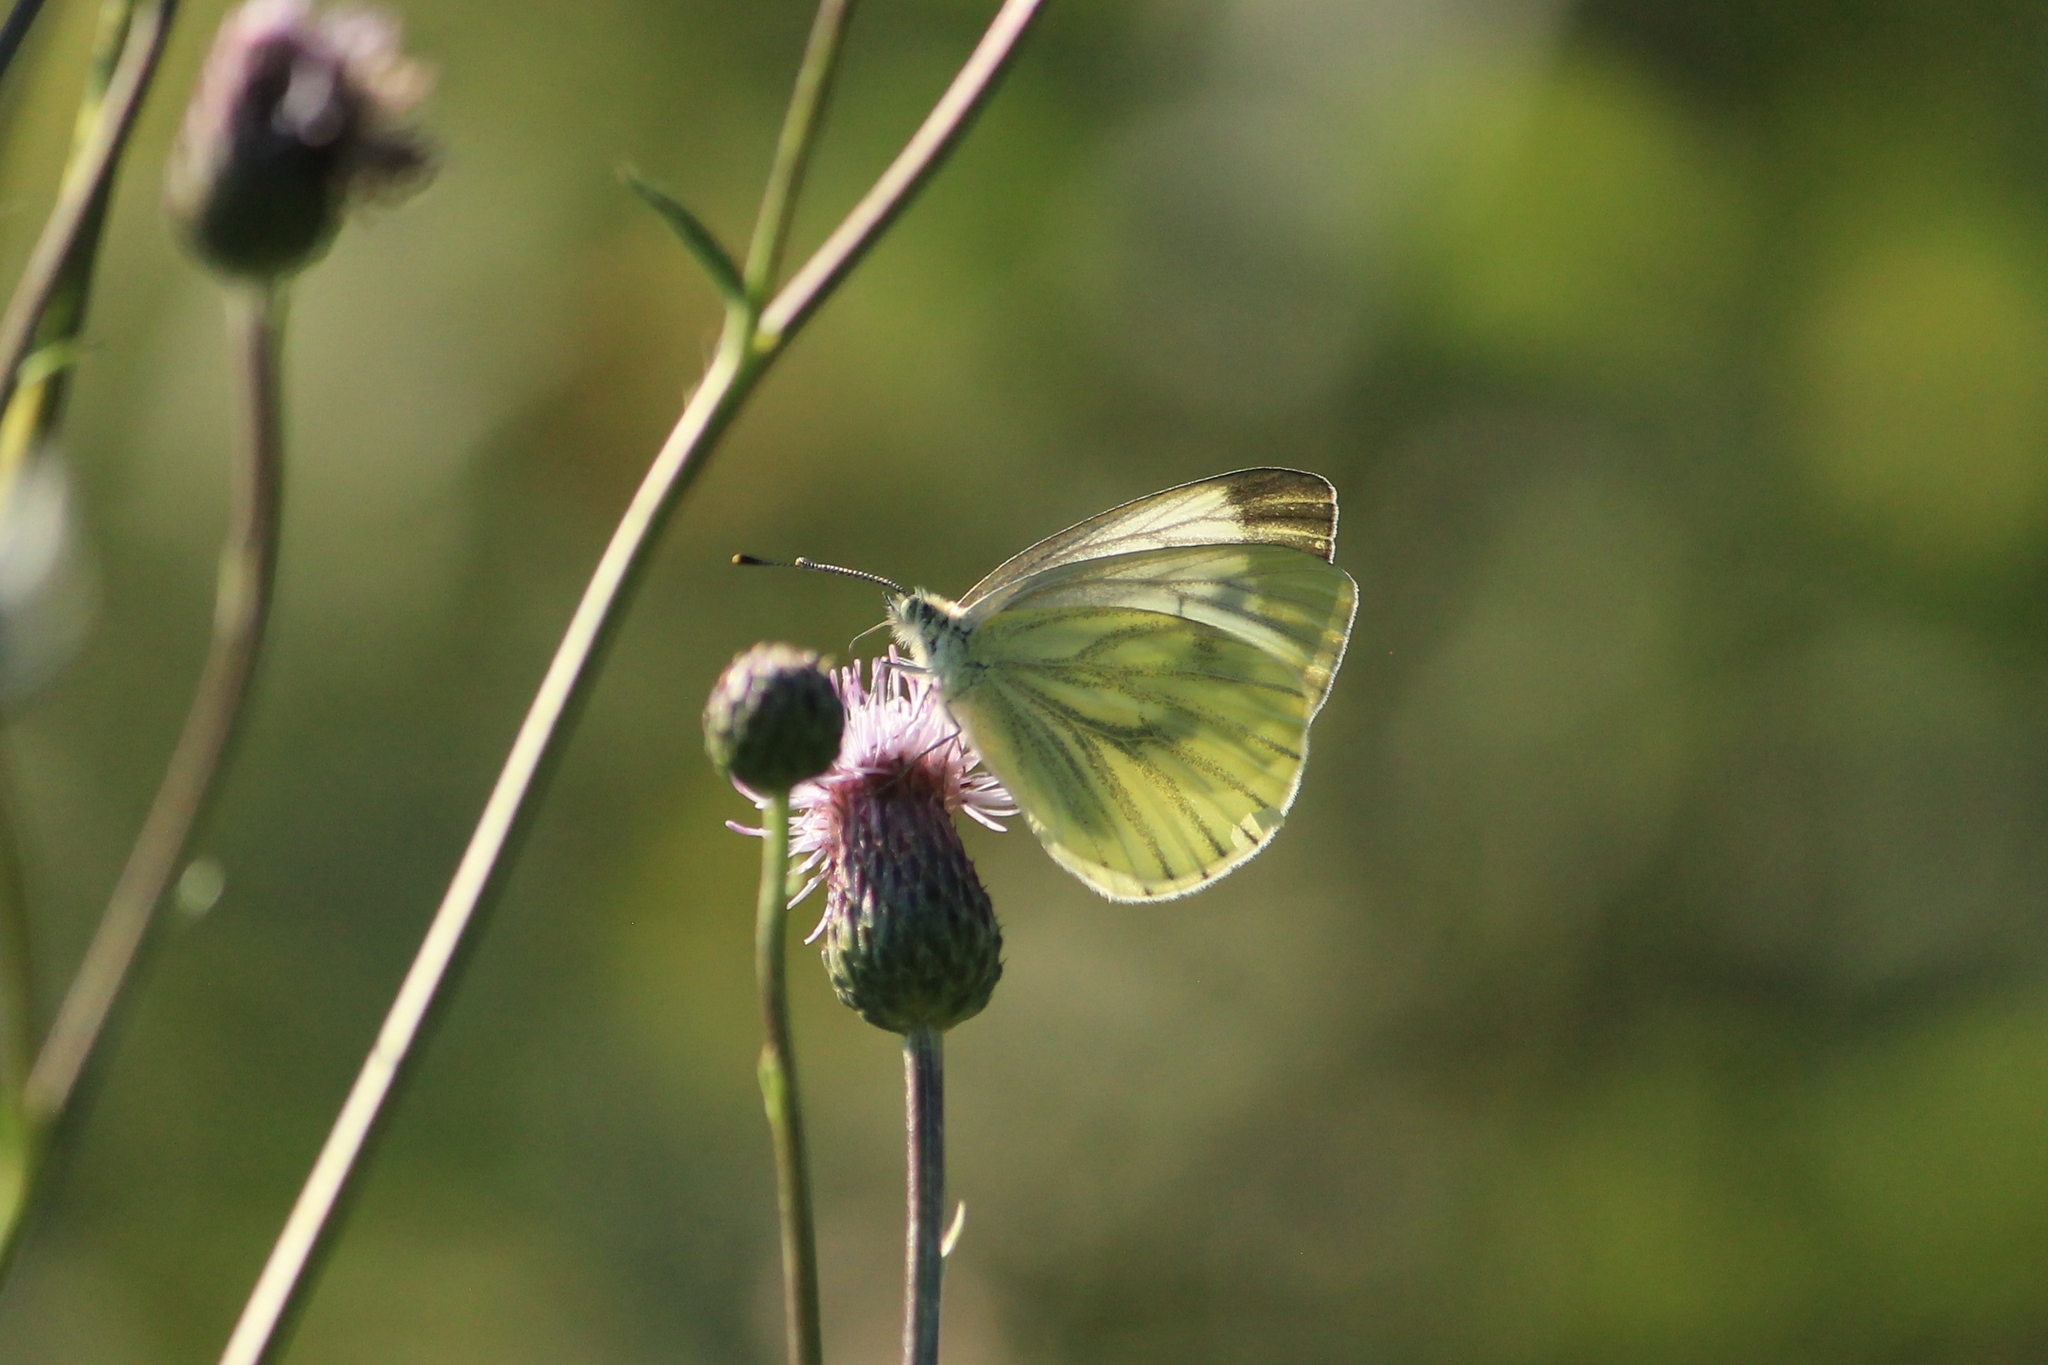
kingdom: Animalia
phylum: Arthropoda
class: Insecta
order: Lepidoptera
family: Pieridae
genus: Pieris
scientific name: Pieris napi
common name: Green-veined white
